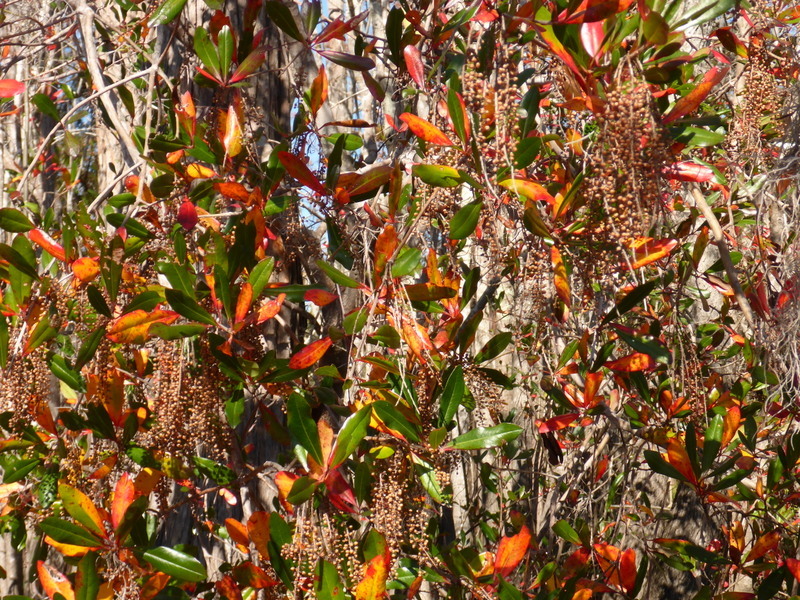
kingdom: Plantae
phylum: Tracheophyta
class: Magnoliopsida
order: Ericales
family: Cyrillaceae
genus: Cyrilla
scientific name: Cyrilla racemiflora
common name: Black titi
